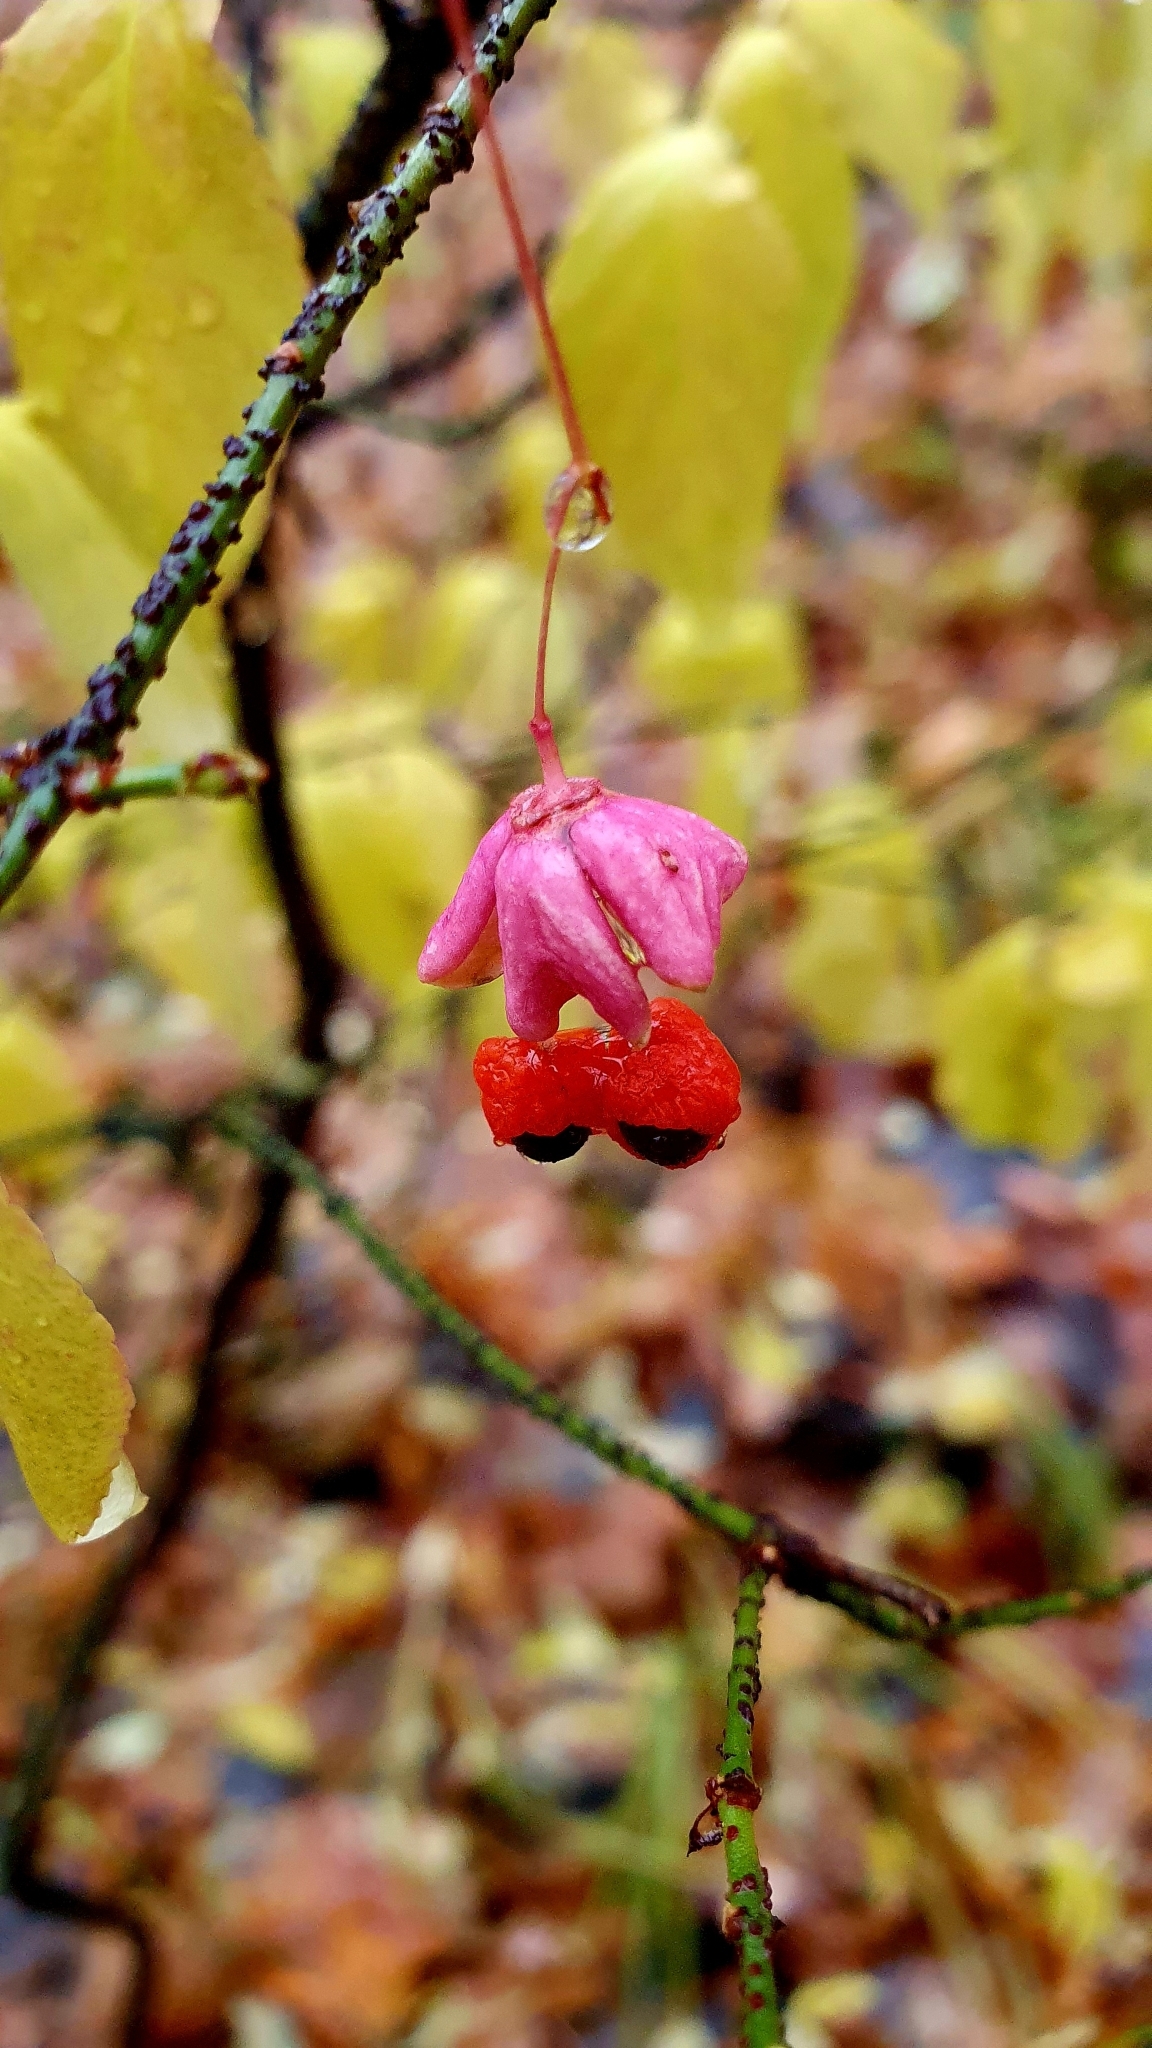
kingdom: Plantae
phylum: Tracheophyta
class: Magnoliopsida
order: Celastrales
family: Celastraceae
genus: Euonymus
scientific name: Euonymus verrucosus
